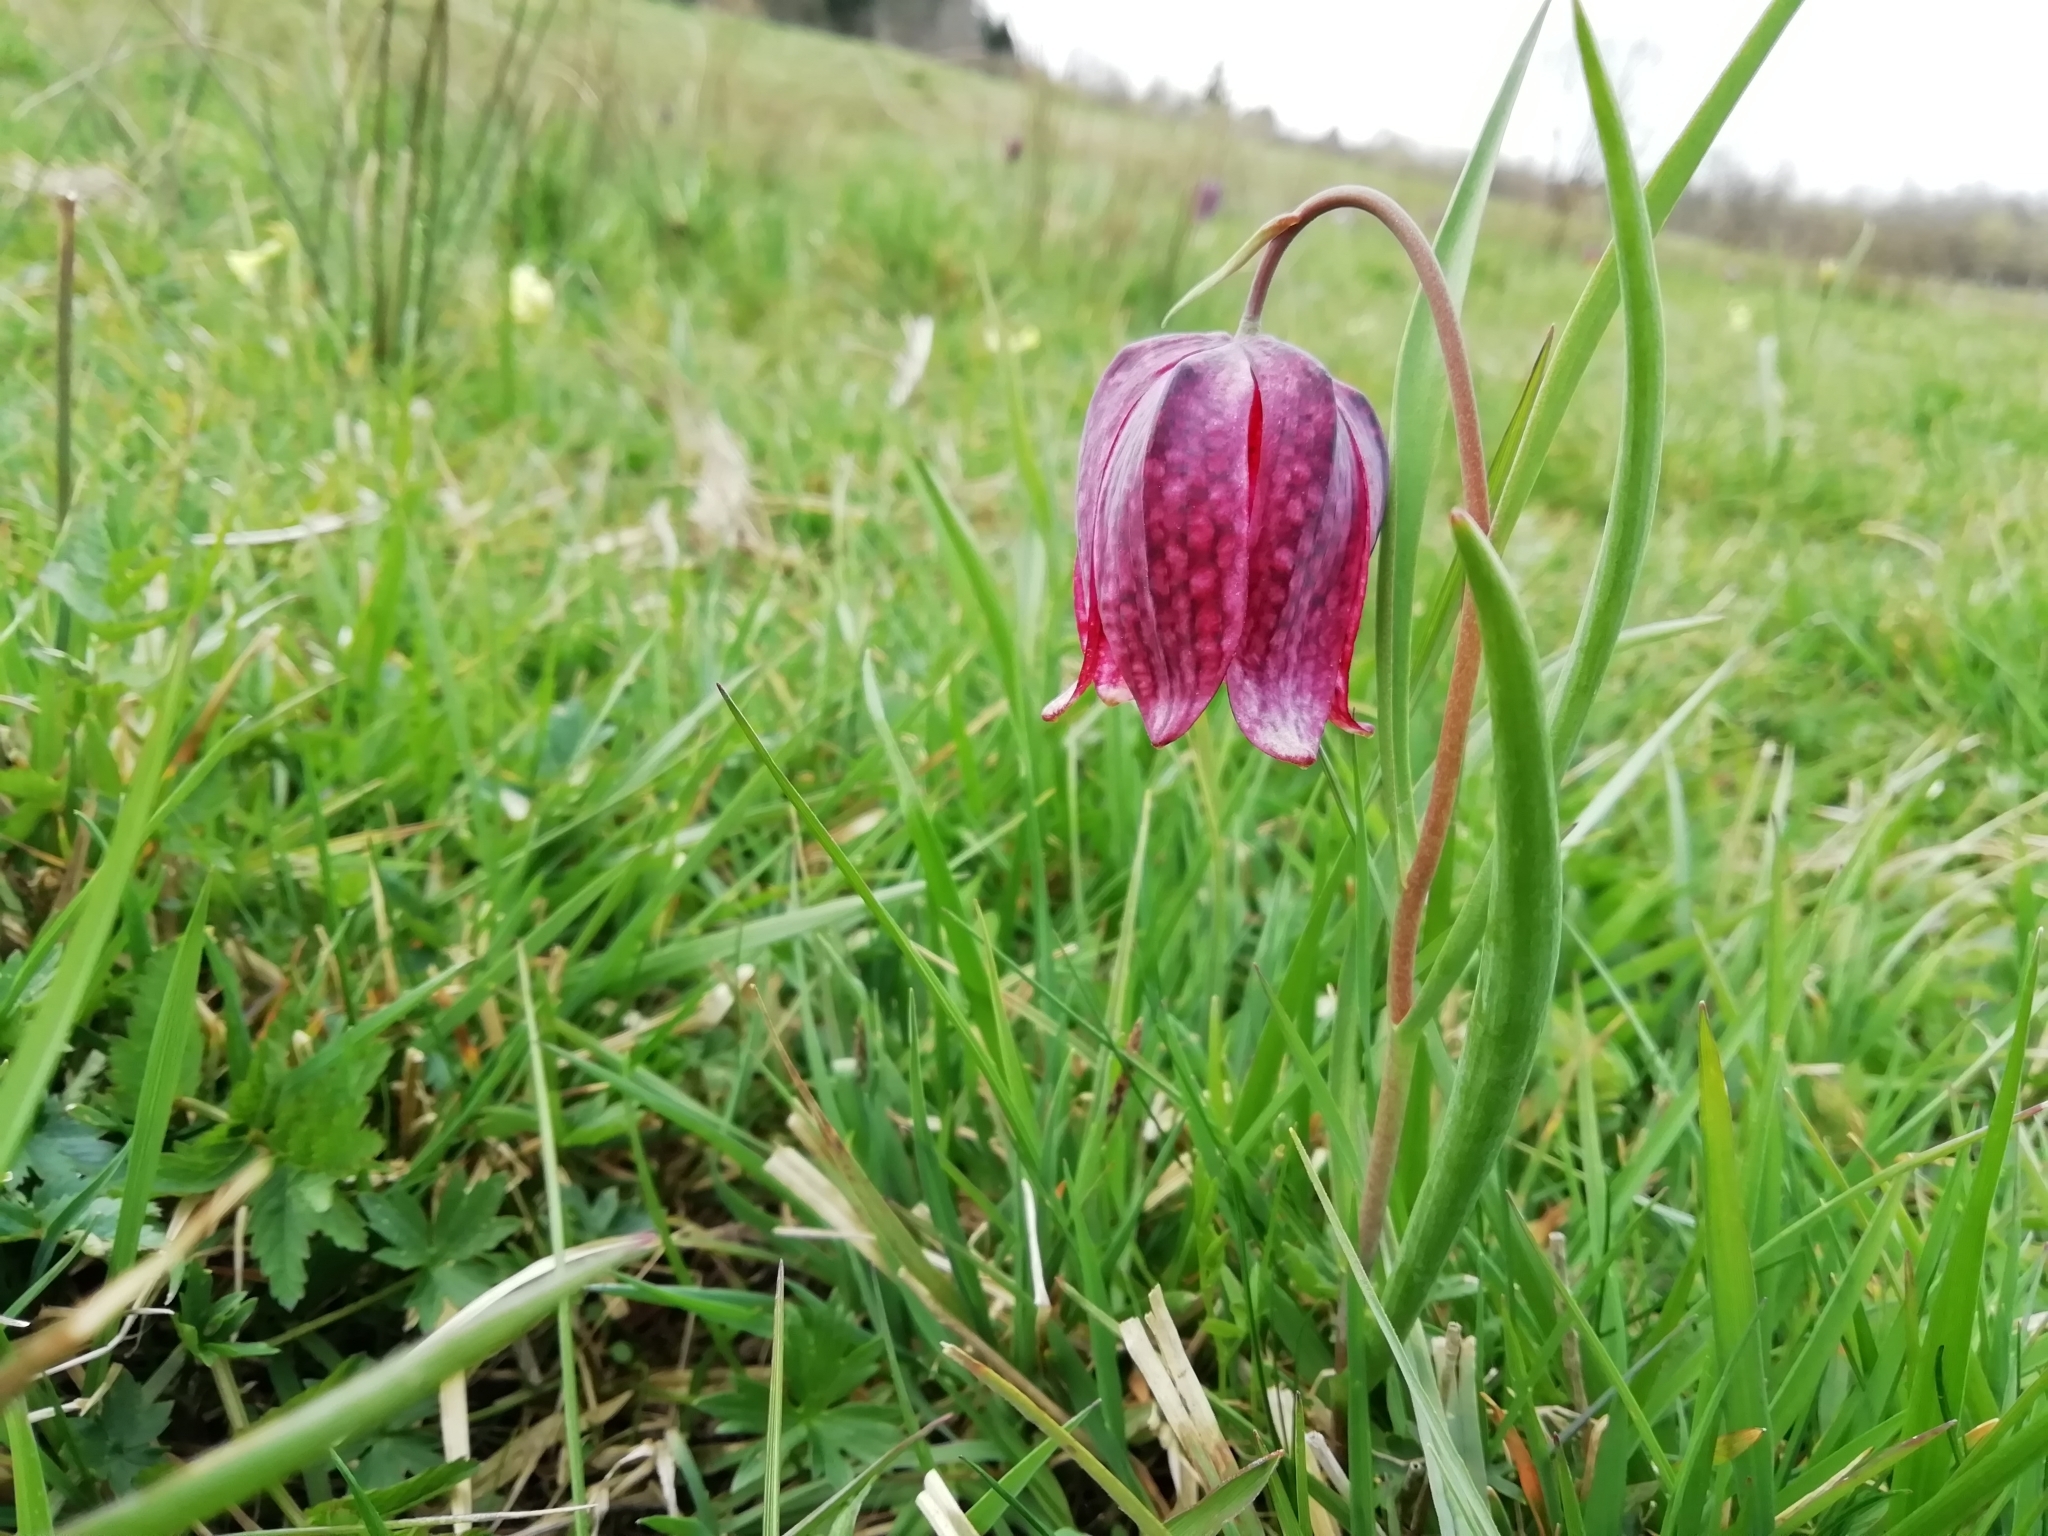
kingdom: Plantae
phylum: Tracheophyta
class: Liliopsida
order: Liliales
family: Liliaceae
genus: Fritillaria
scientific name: Fritillaria meleagris
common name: Fritillary
